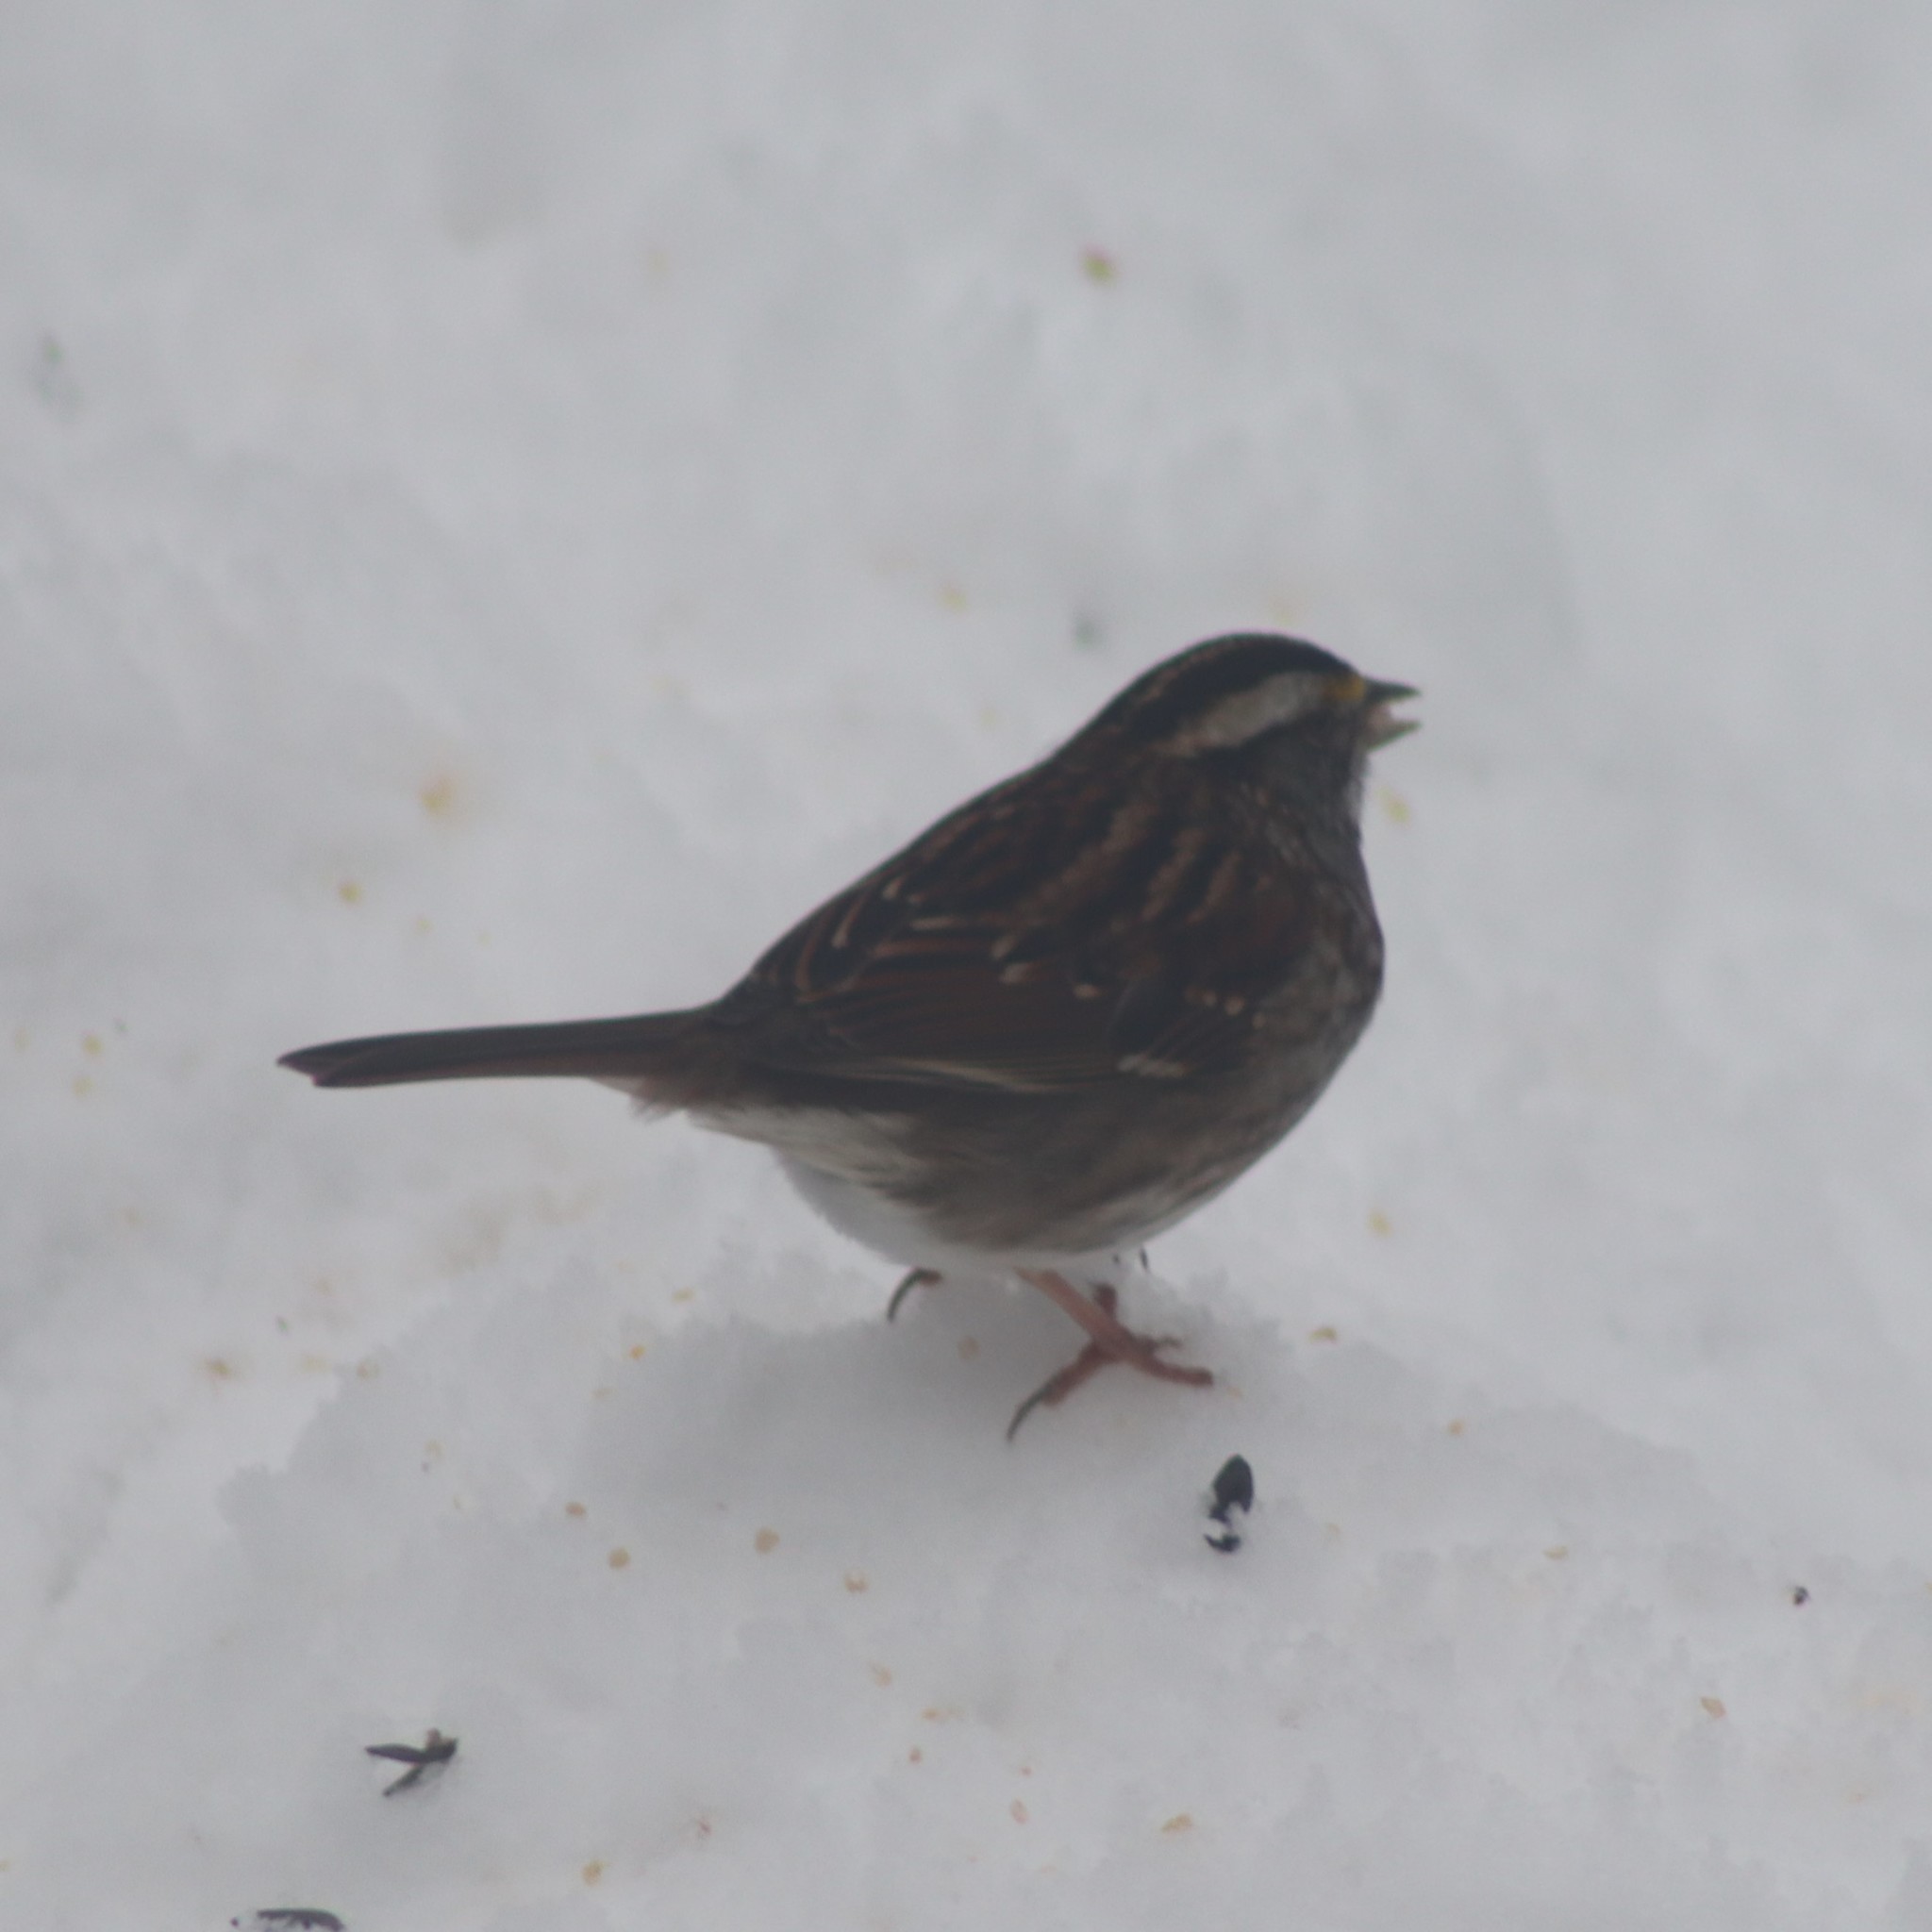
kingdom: Animalia
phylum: Chordata
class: Aves
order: Passeriformes
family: Passerellidae
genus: Zonotrichia
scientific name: Zonotrichia albicollis
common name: White-throated sparrow
